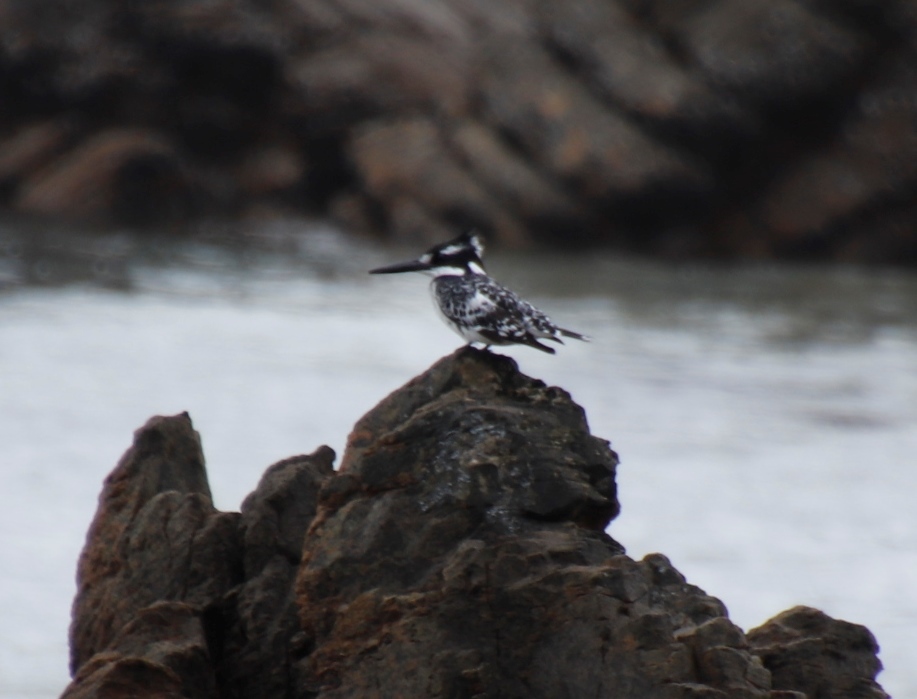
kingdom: Animalia
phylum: Chordata
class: Aves
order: Coraciiformes
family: Alcedinidae
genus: Ceryle
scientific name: Ceryle rudis
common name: Pied kingfisher
